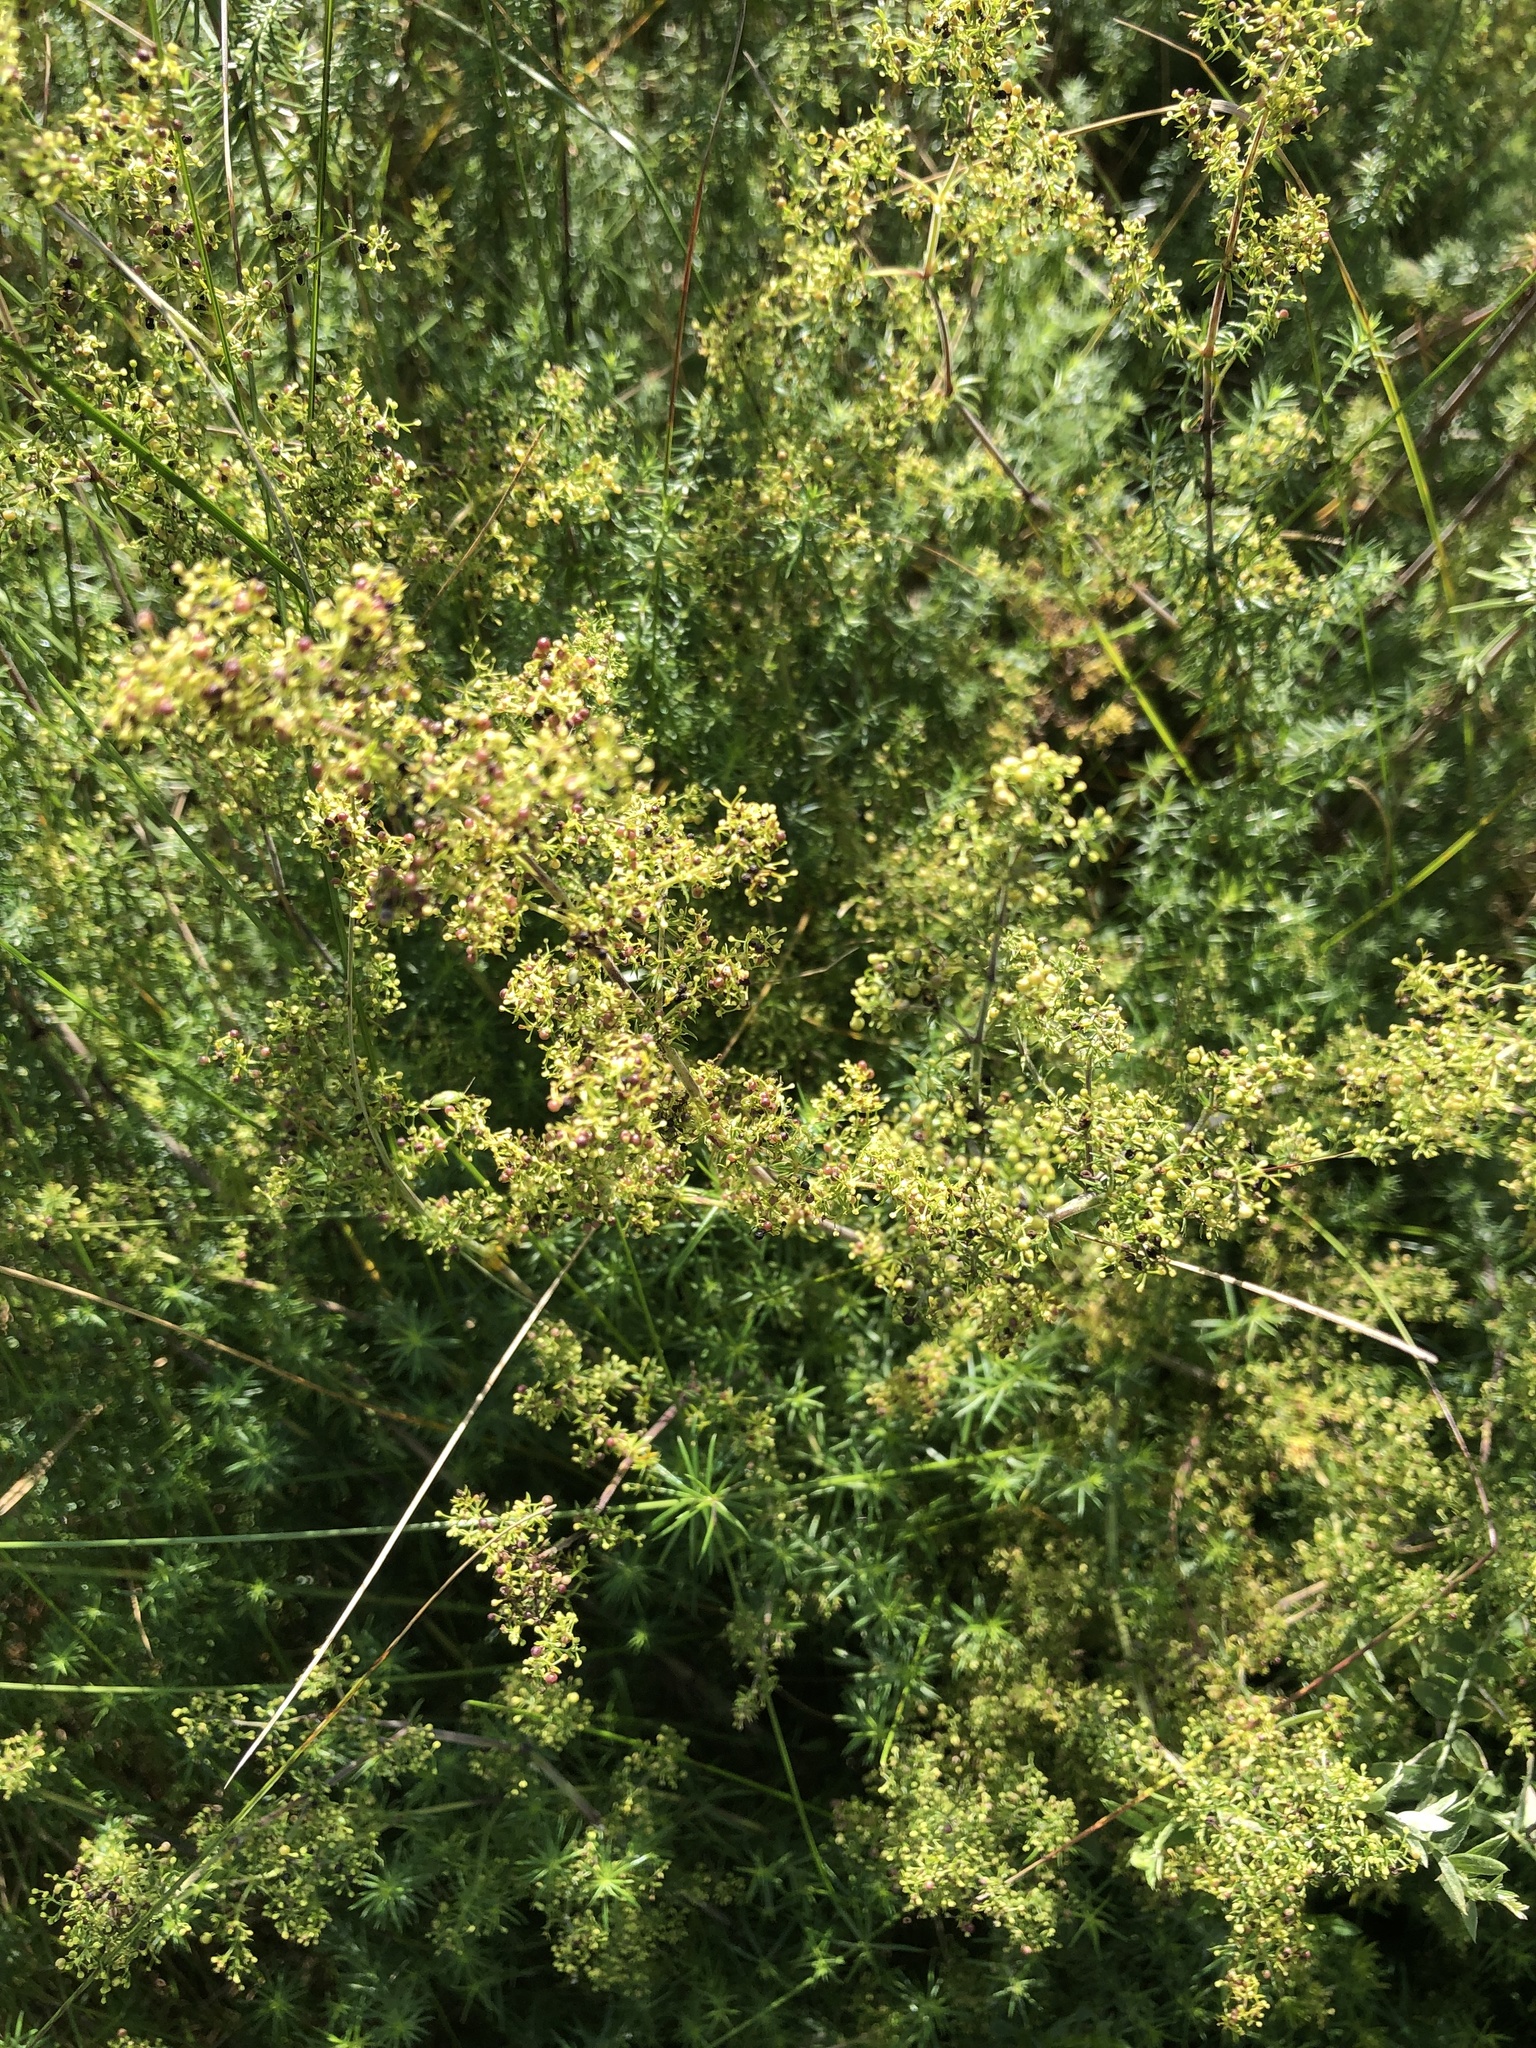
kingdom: Plantae
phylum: Tracheophyta
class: Magnoliopsida
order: Gentianales
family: Rubiaceae
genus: Galium
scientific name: Galium verum
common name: Lady's bedstraw
